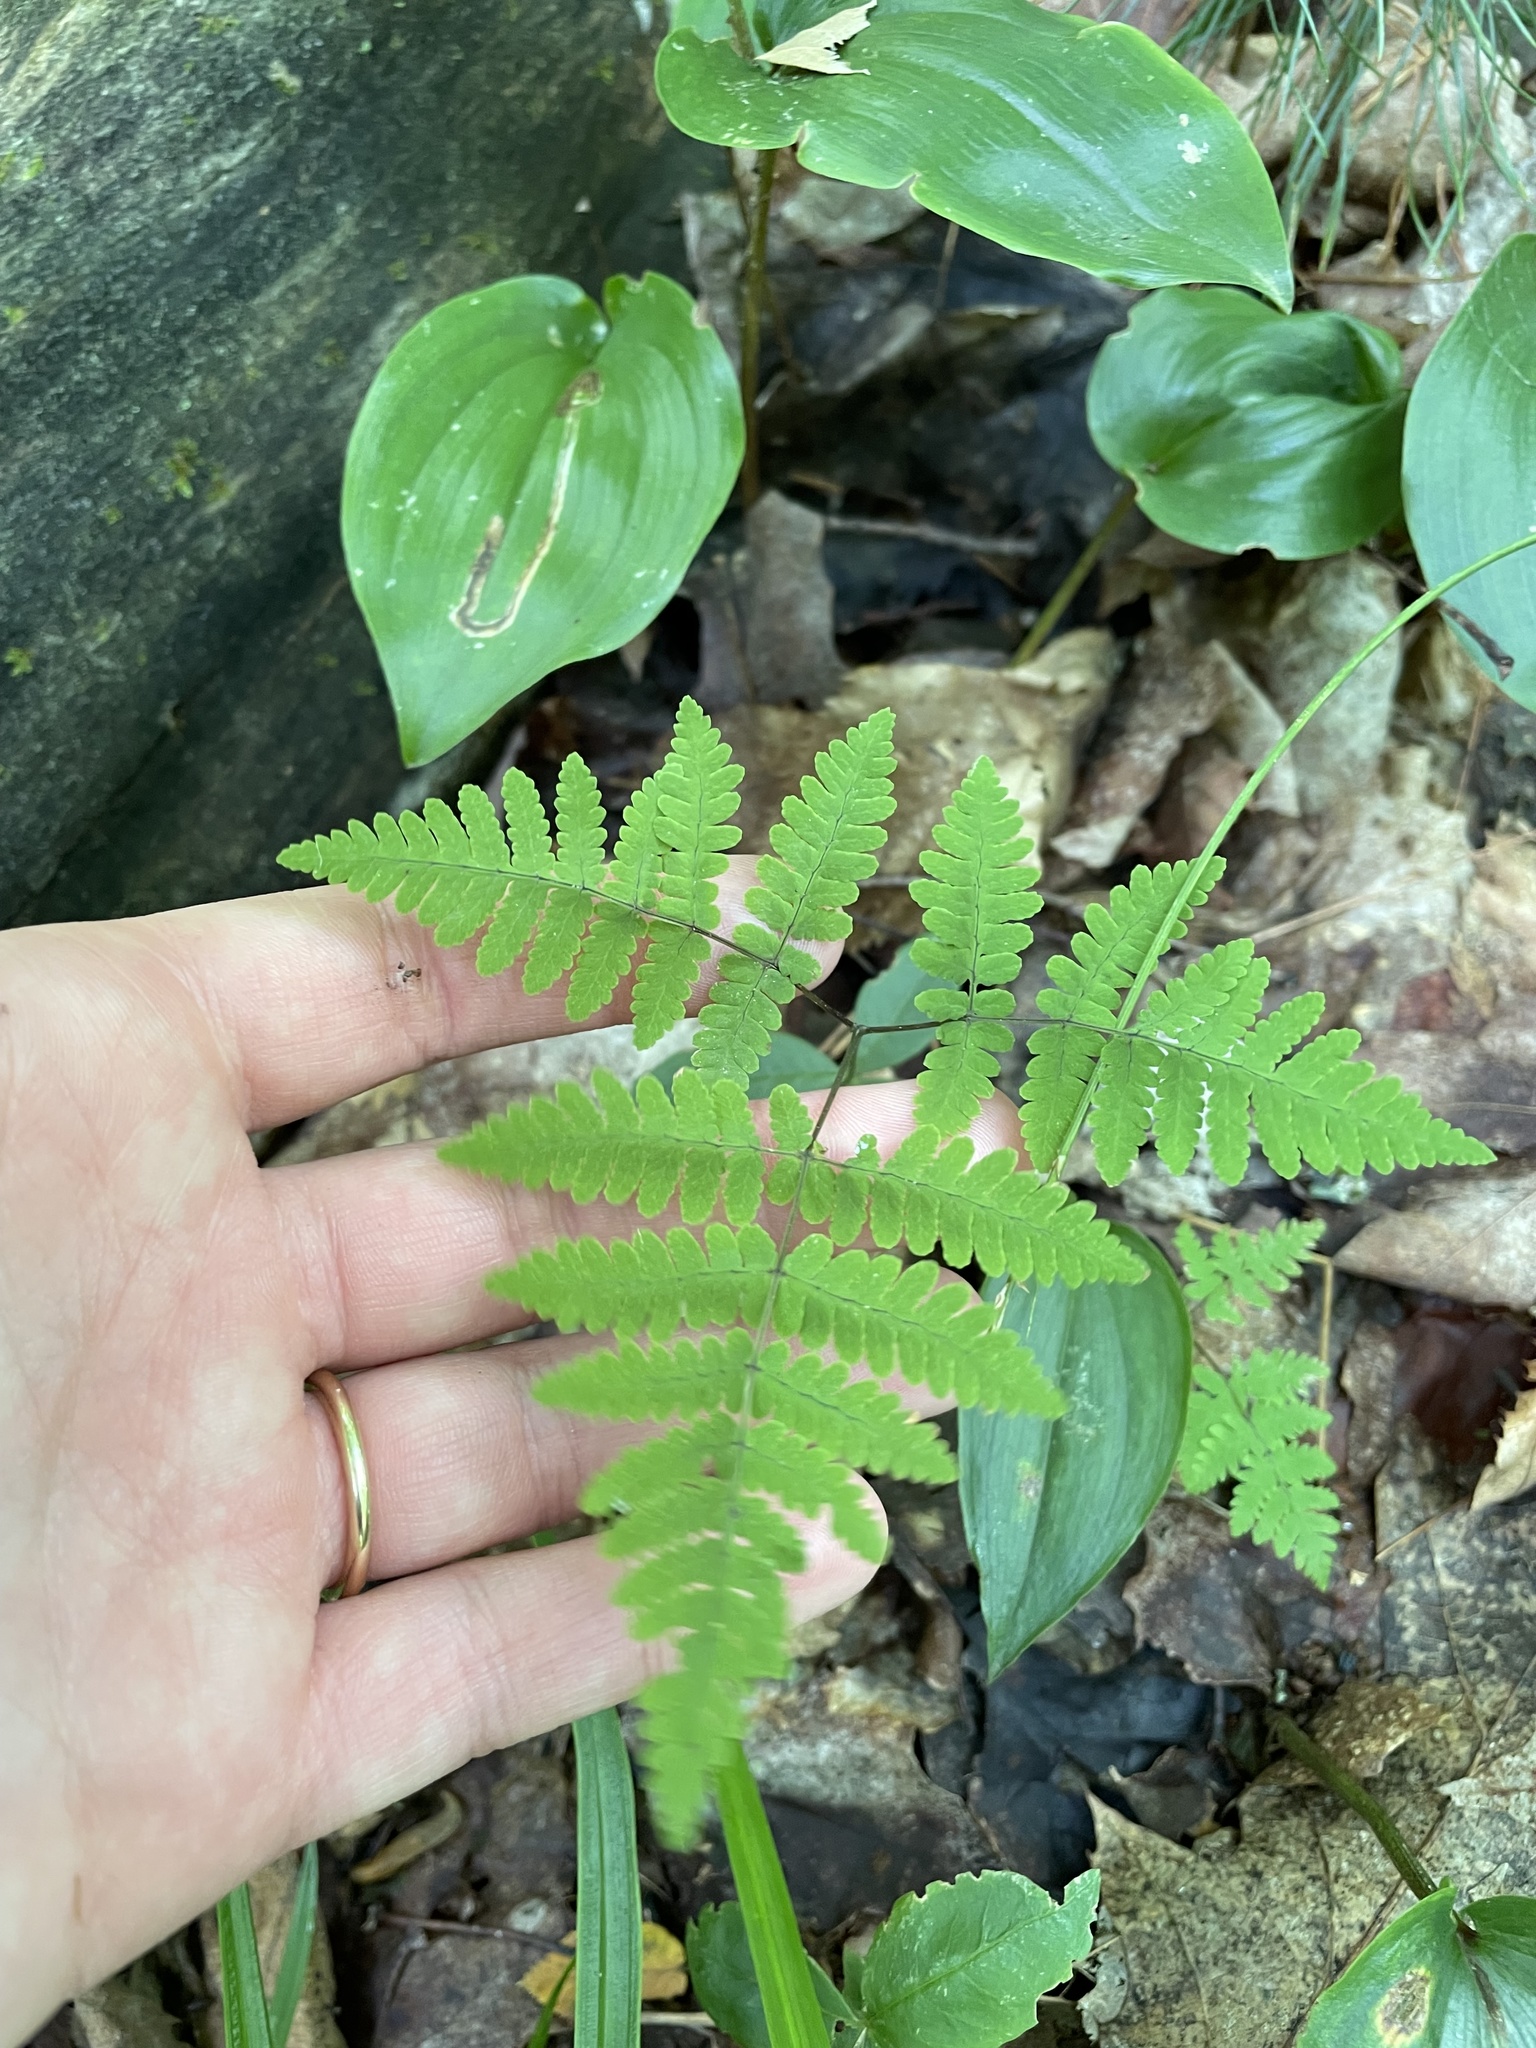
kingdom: Plantae
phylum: Tracheophyta
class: Polypodiopsida
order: Polypodiales
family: Cystopteridaceae
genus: Gymnocarpium
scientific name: Gymnocarpium dryopteris
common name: Oak fern
